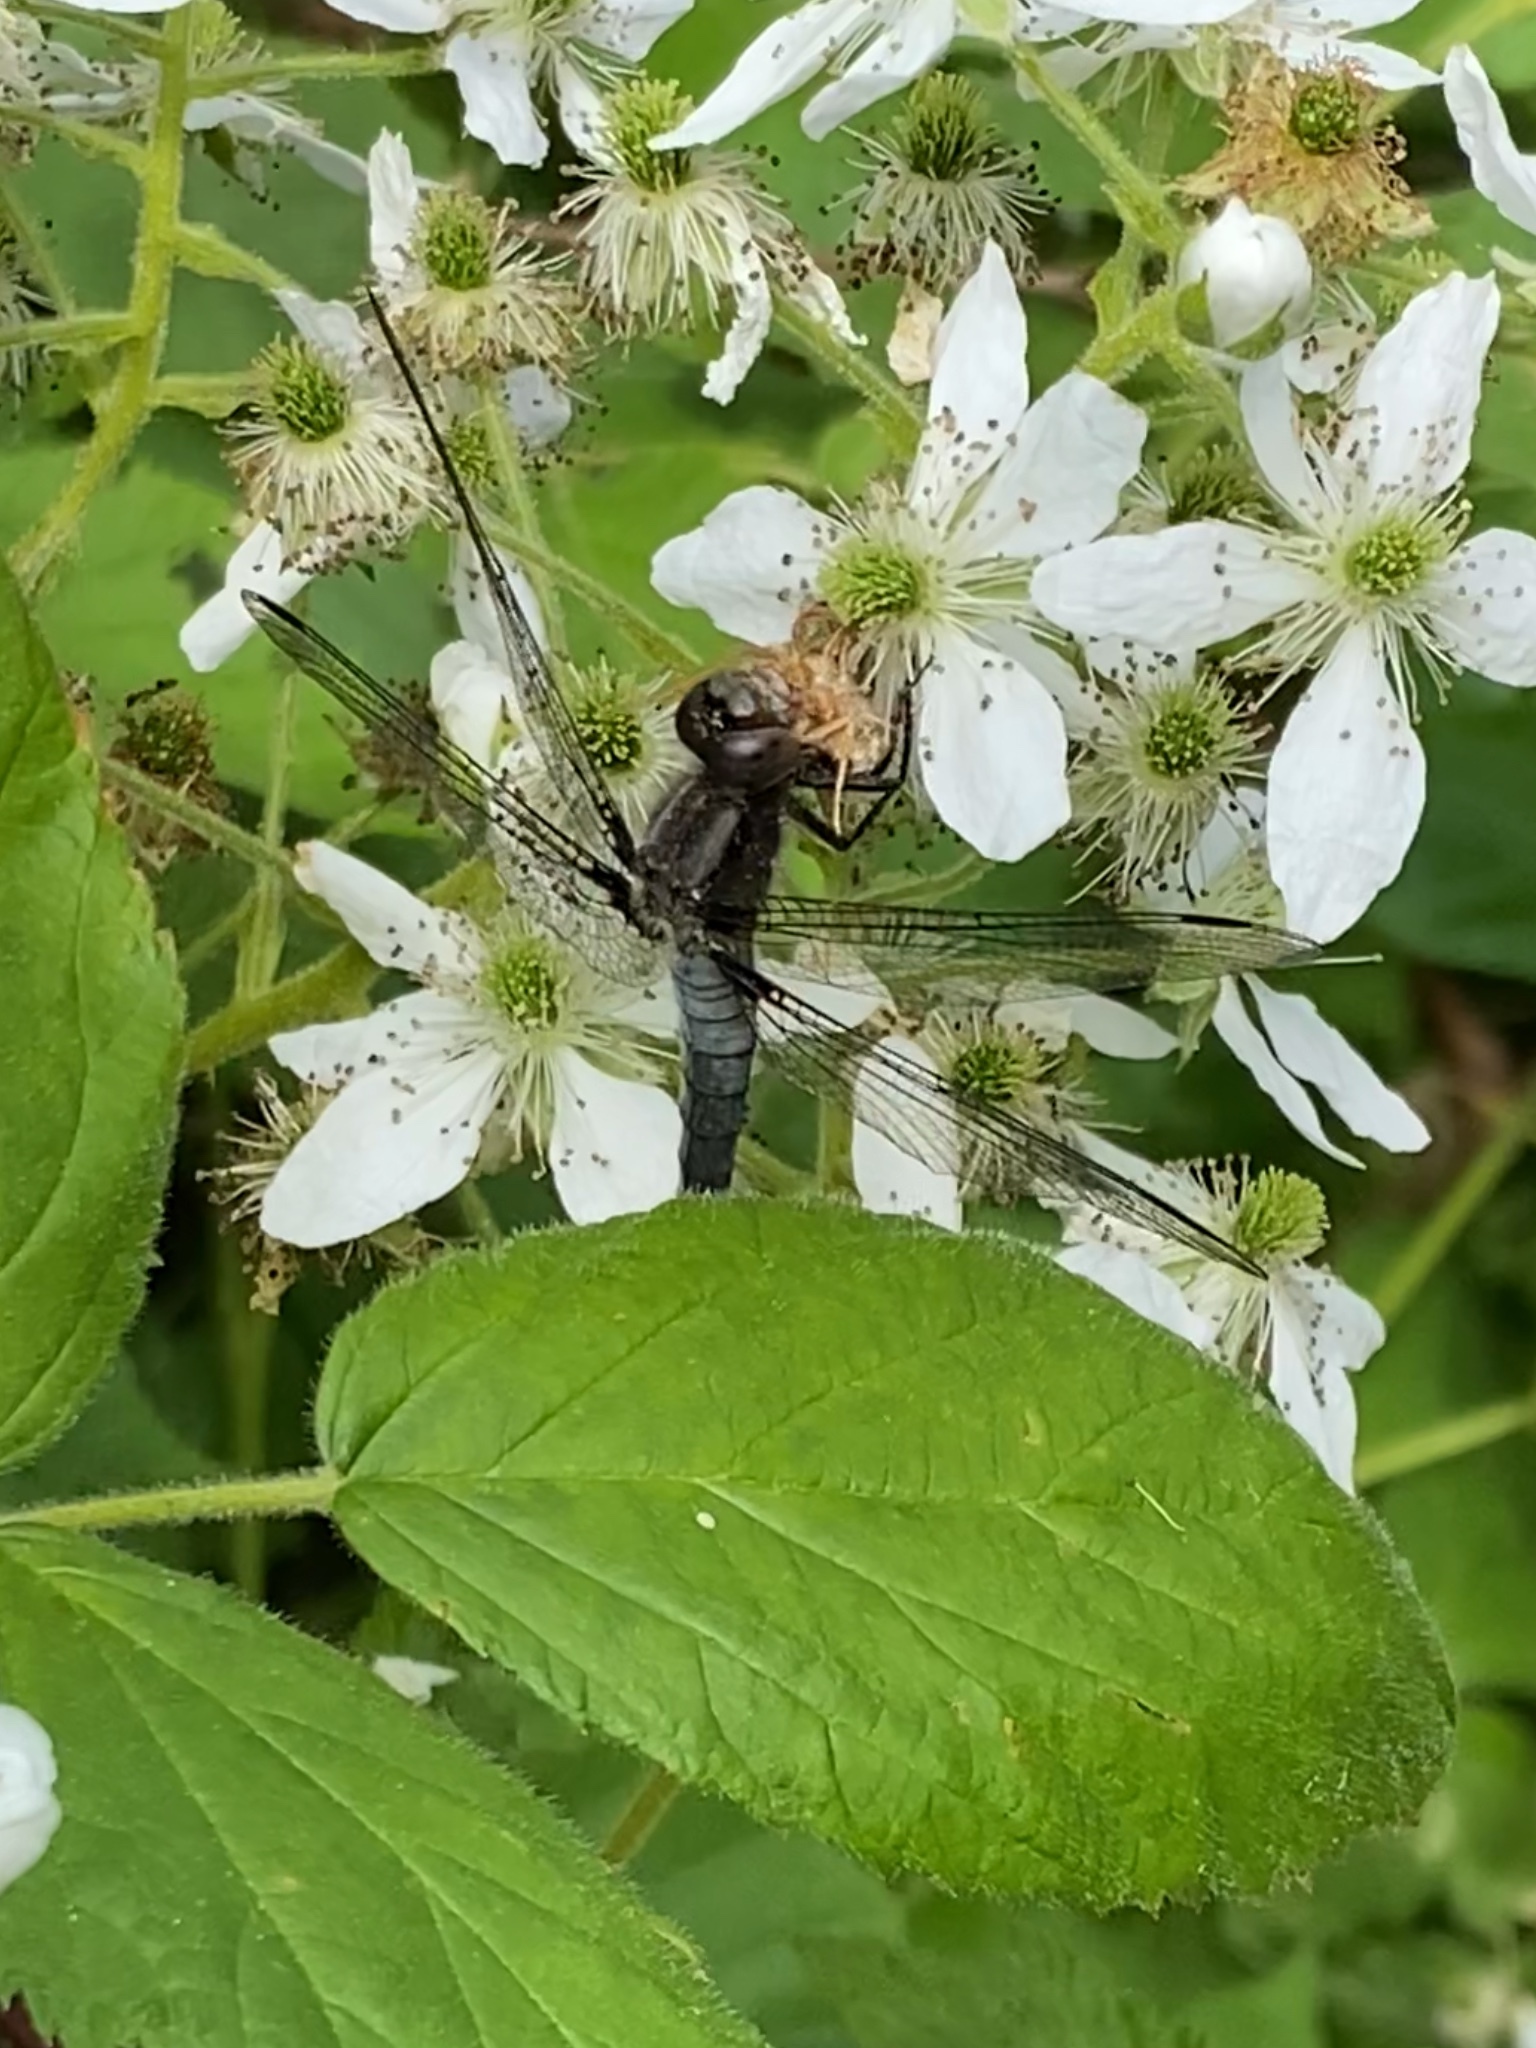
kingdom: Animalia
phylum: Arthropoda
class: Insecta
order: Odonata
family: Libellulidae
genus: Ladona
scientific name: Ladona julia
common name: Chalk-fronted corporal
